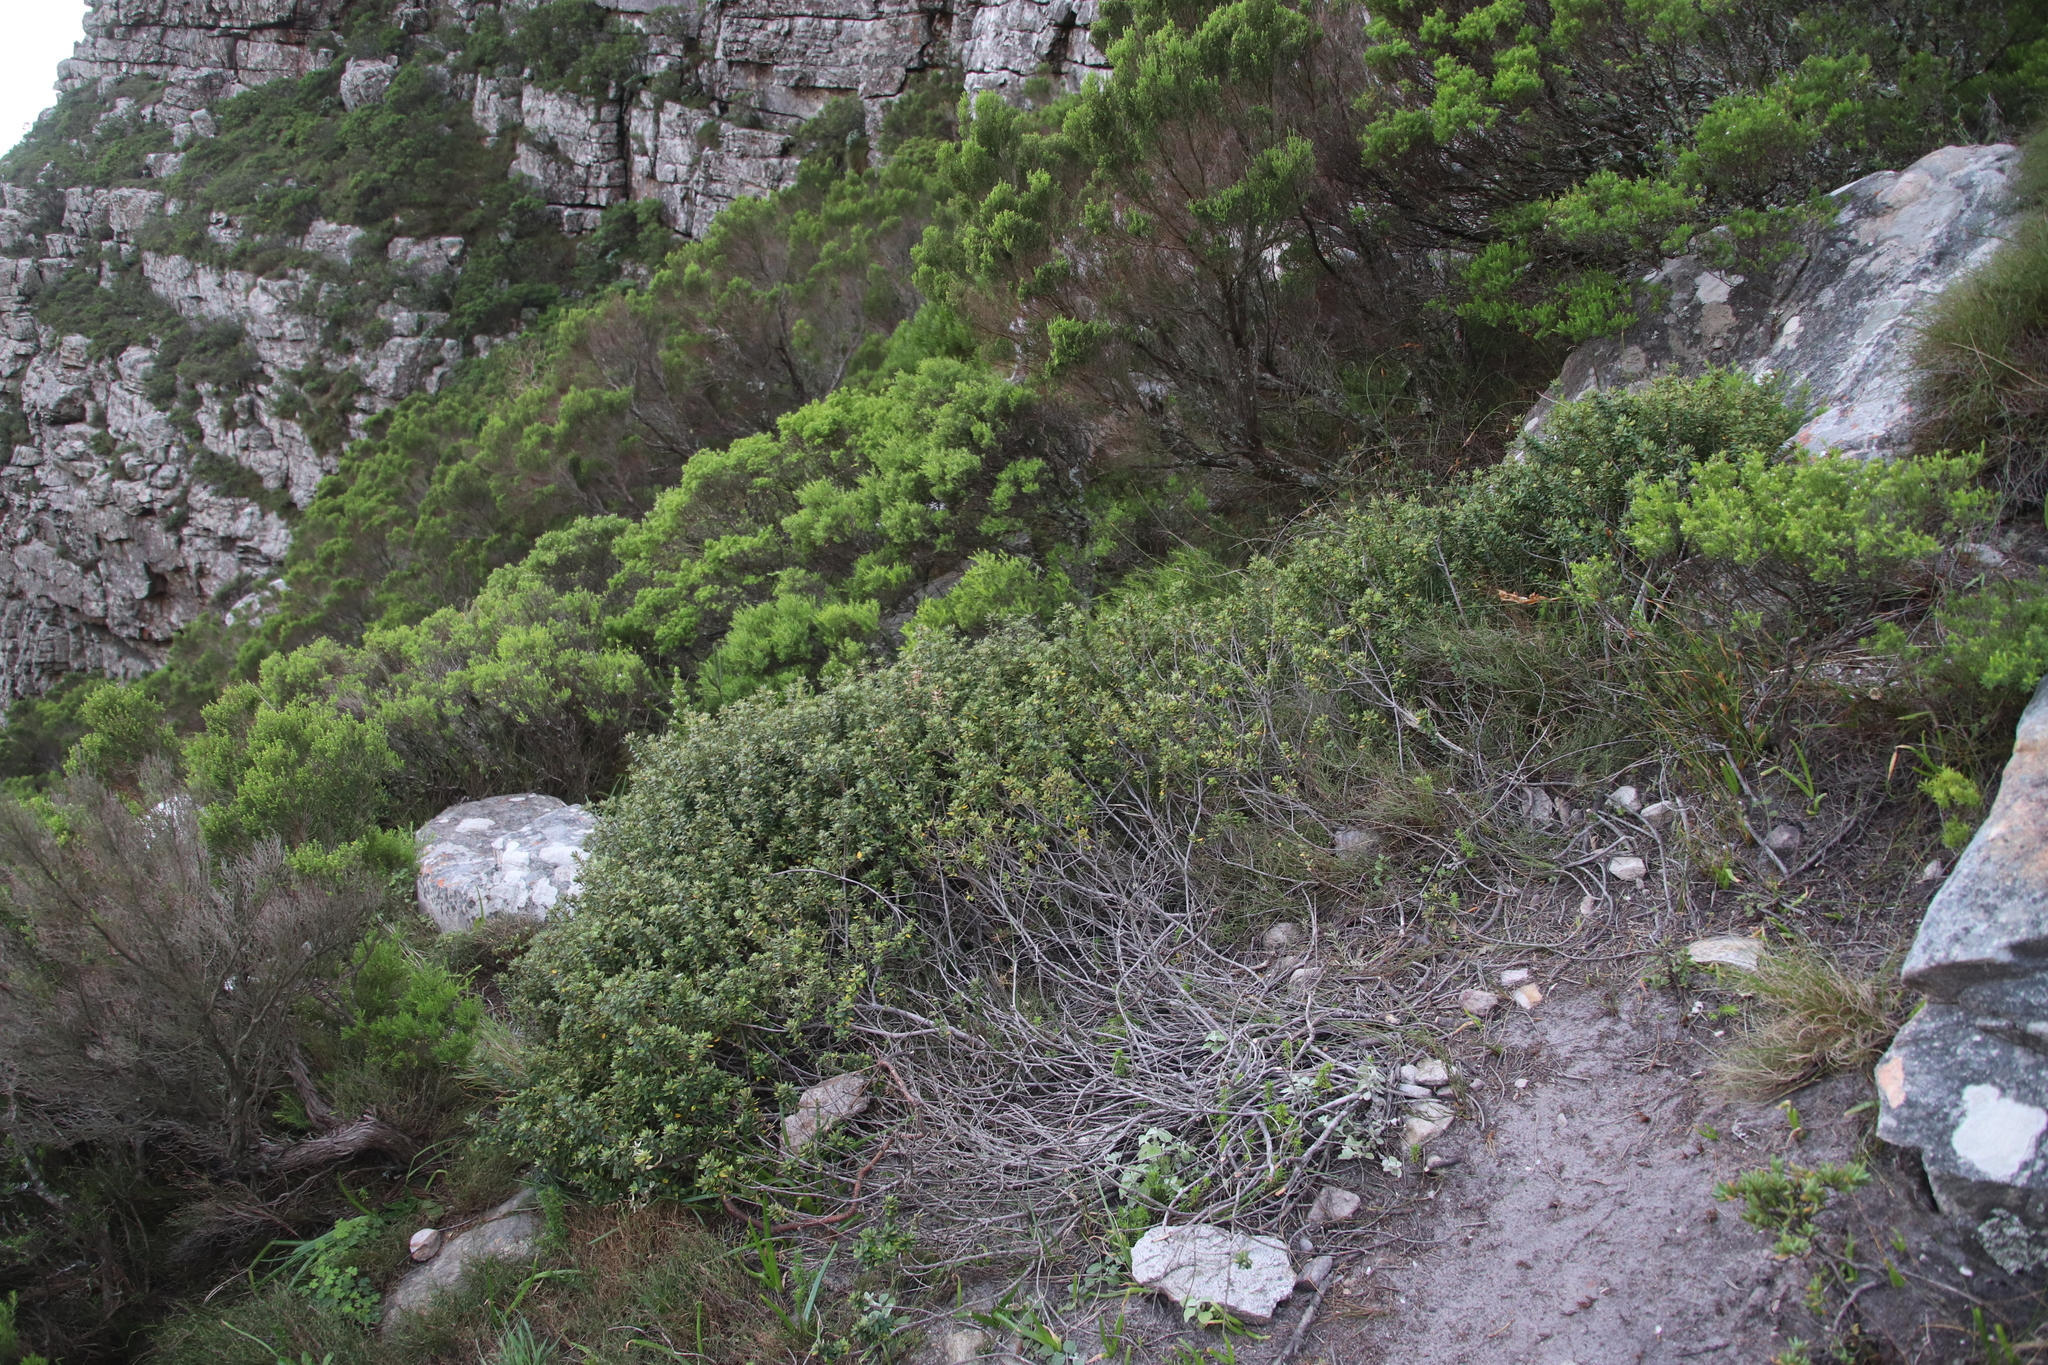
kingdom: Plantae
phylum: Tracheophyta
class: Magnoliopsida
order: Rosales
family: Rhamnaceae
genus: Phylica
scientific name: Phylica buxifolia
